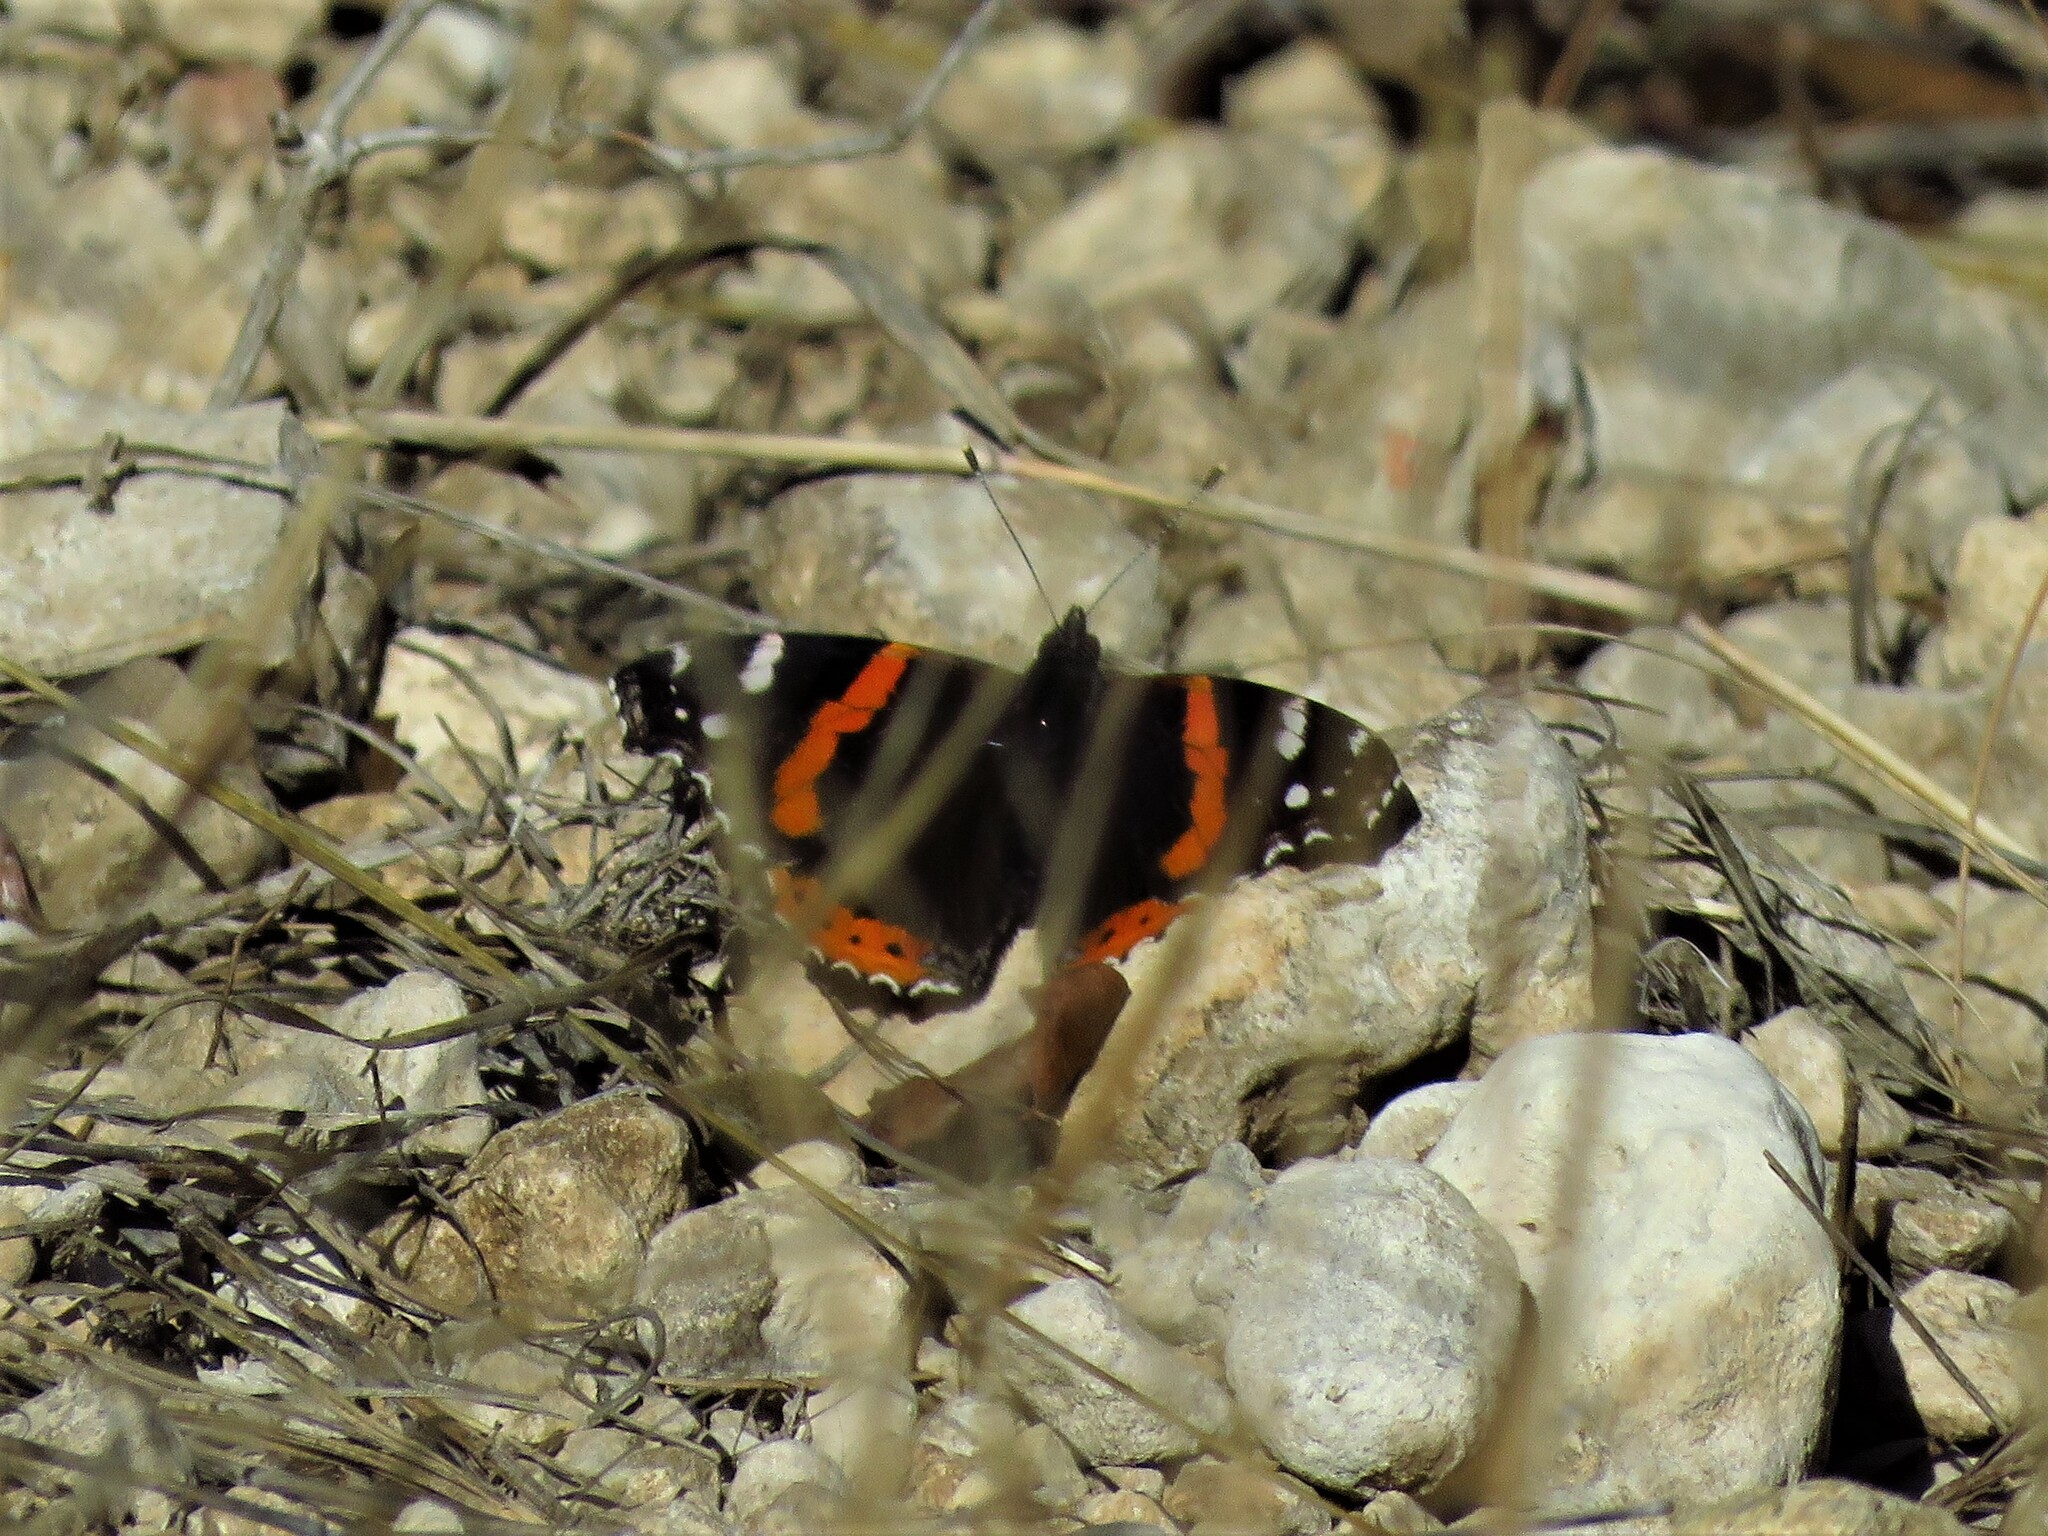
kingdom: Animalia
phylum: Arthropoda
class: Insecta
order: Lepidoptera
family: Nymphalidae
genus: Vanessa
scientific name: Vanessa atalanta
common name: Red admiral
